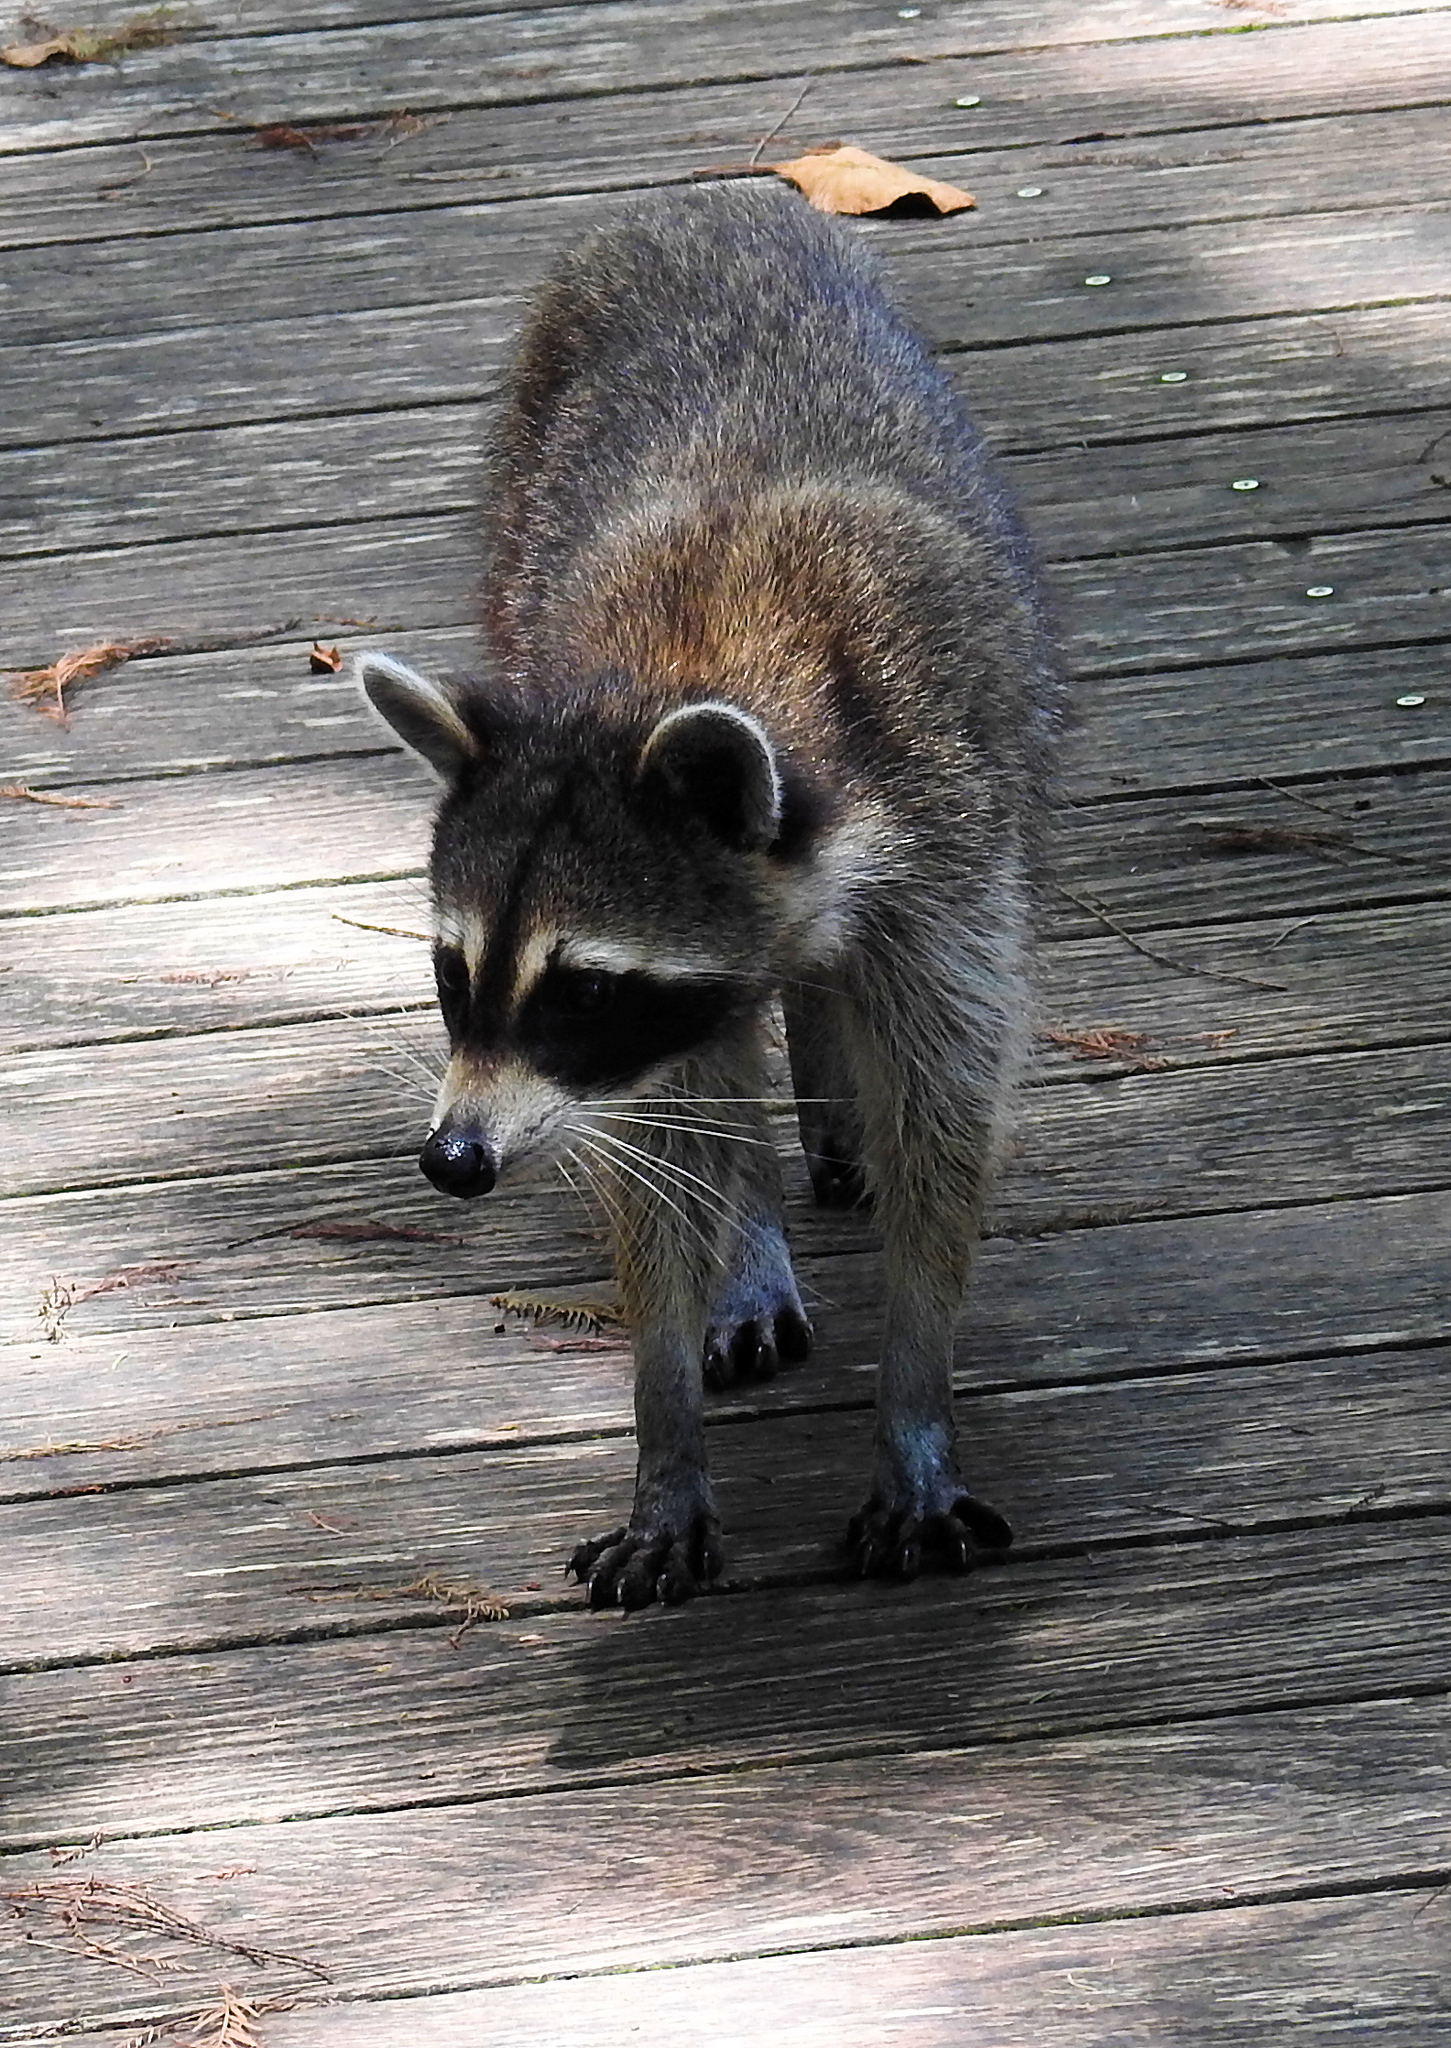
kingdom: Animalia
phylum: Chordata
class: Mammalia
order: Carnivora
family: Procyonidae
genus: Procyon
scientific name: Procyon lotor
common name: Raccoon
